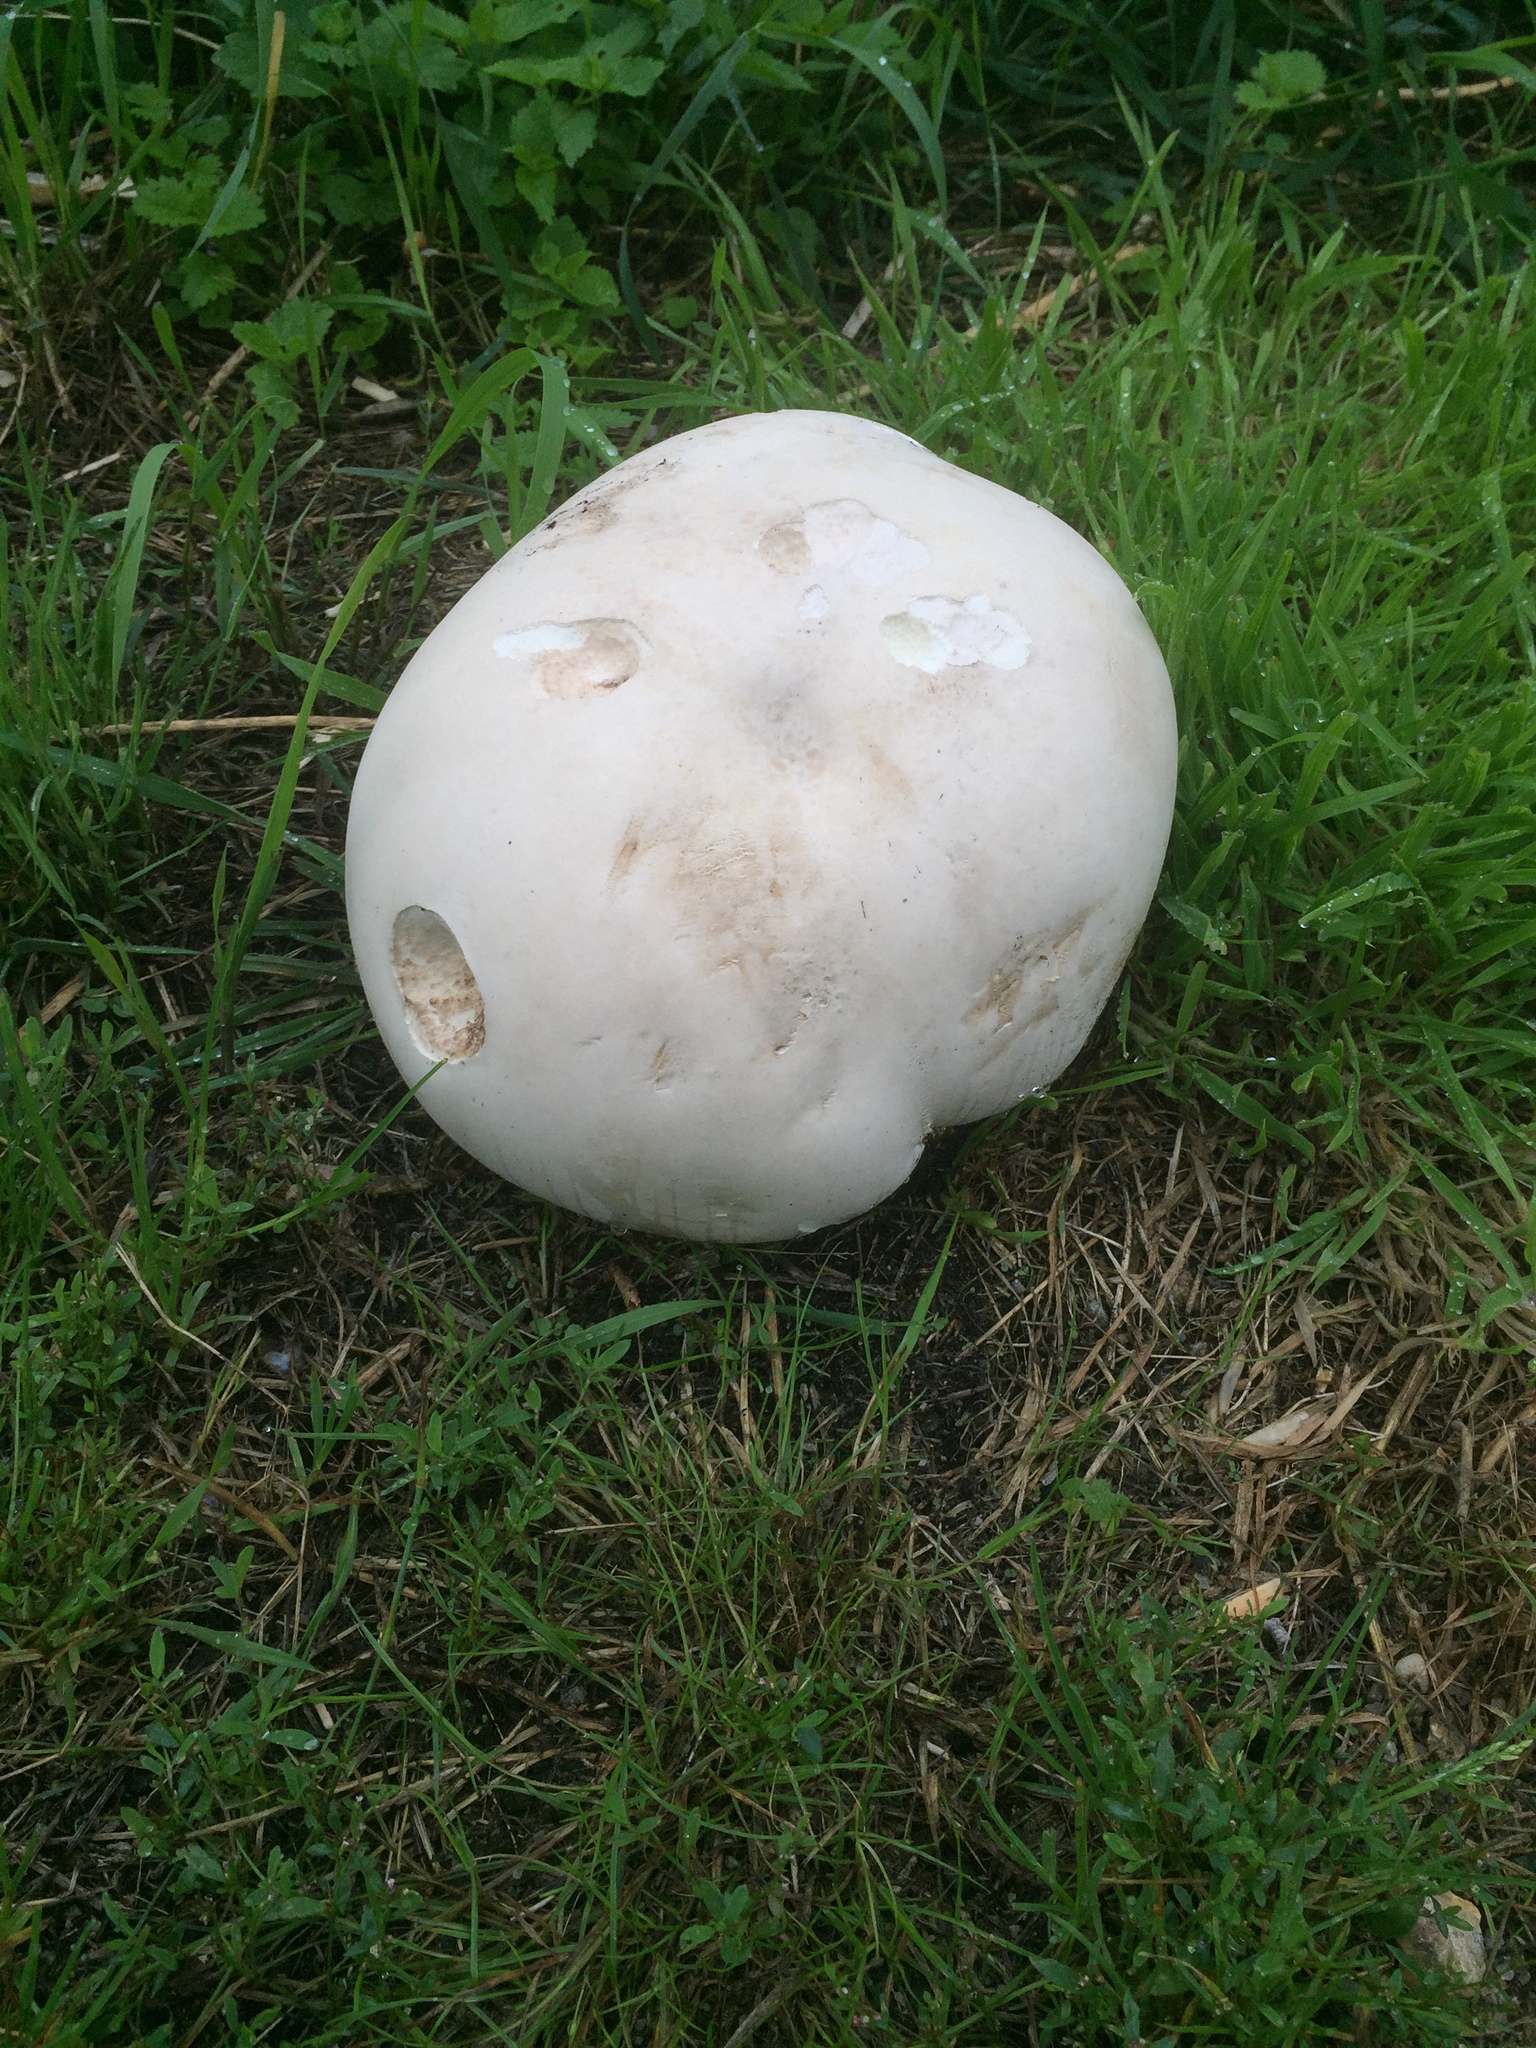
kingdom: Fungi
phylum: Basidiomycota
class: Agaricomycetes
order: Agaricales
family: Lycoperdaceae
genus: Calvatia
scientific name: Calvatia gigantea
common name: Giant puffball
